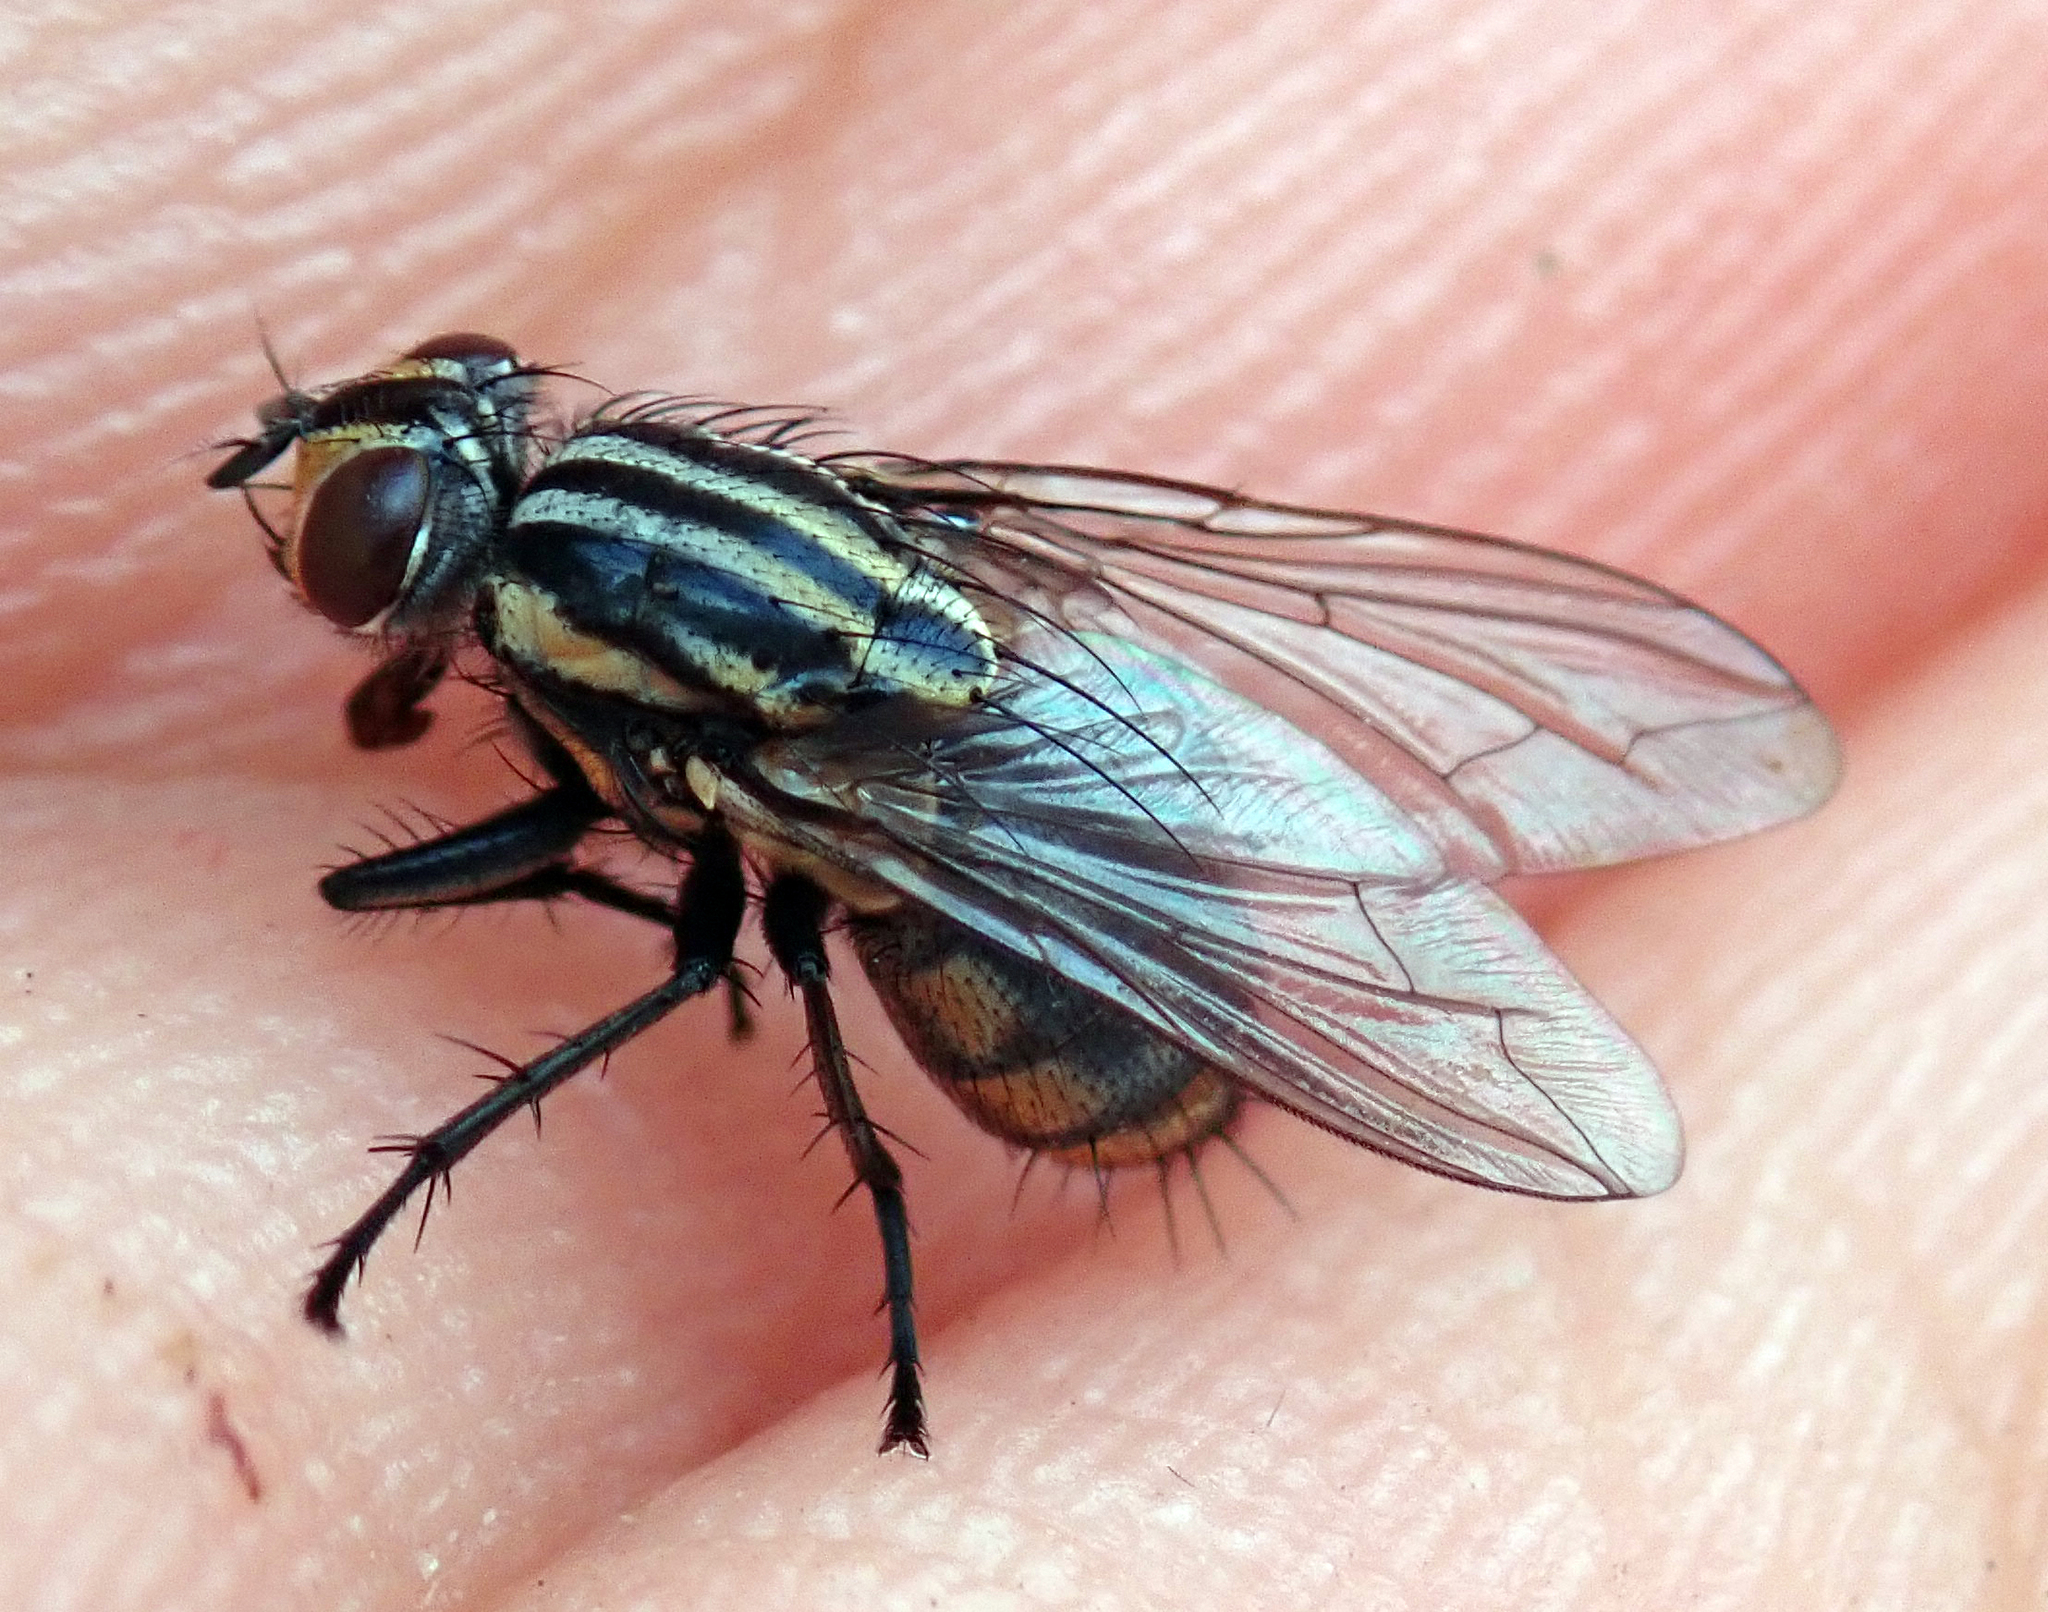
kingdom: Animalia
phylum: Arthropoda
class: Insecta
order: Diptera
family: Sarcophagidae
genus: Oxysarcodexia
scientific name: Oxysarcodexia varia
